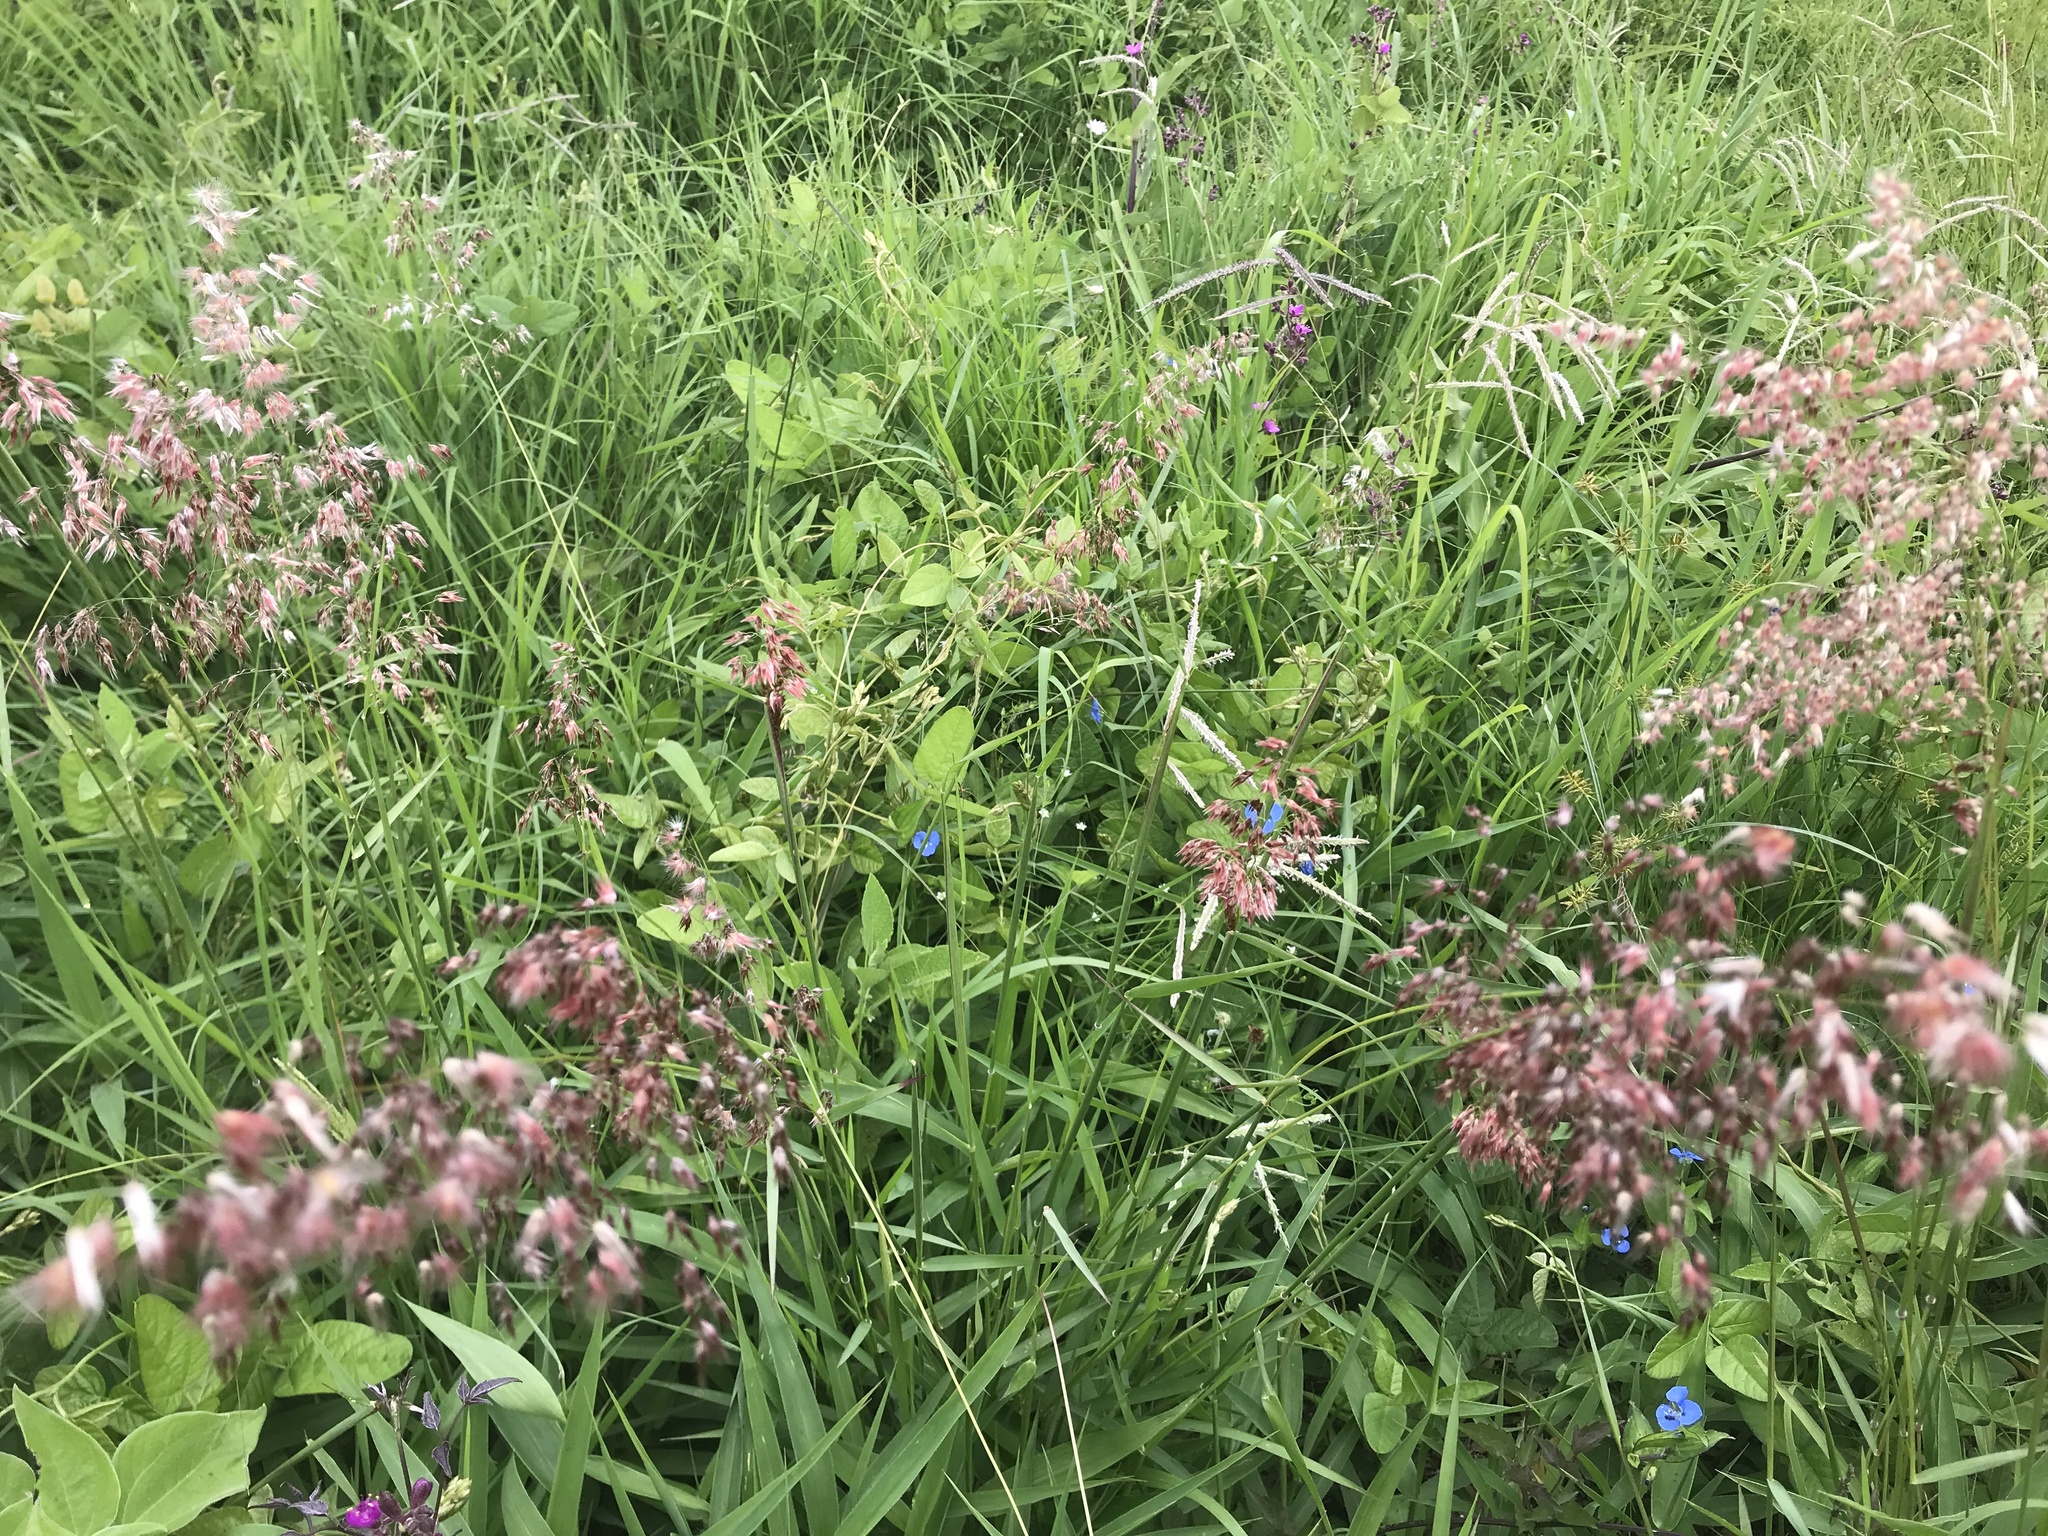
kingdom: Plantae
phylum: Tracheophyta
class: Liliopsida
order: Poales
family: Poaceae
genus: Melinis
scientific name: Melinis repens
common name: Rose natal grass
